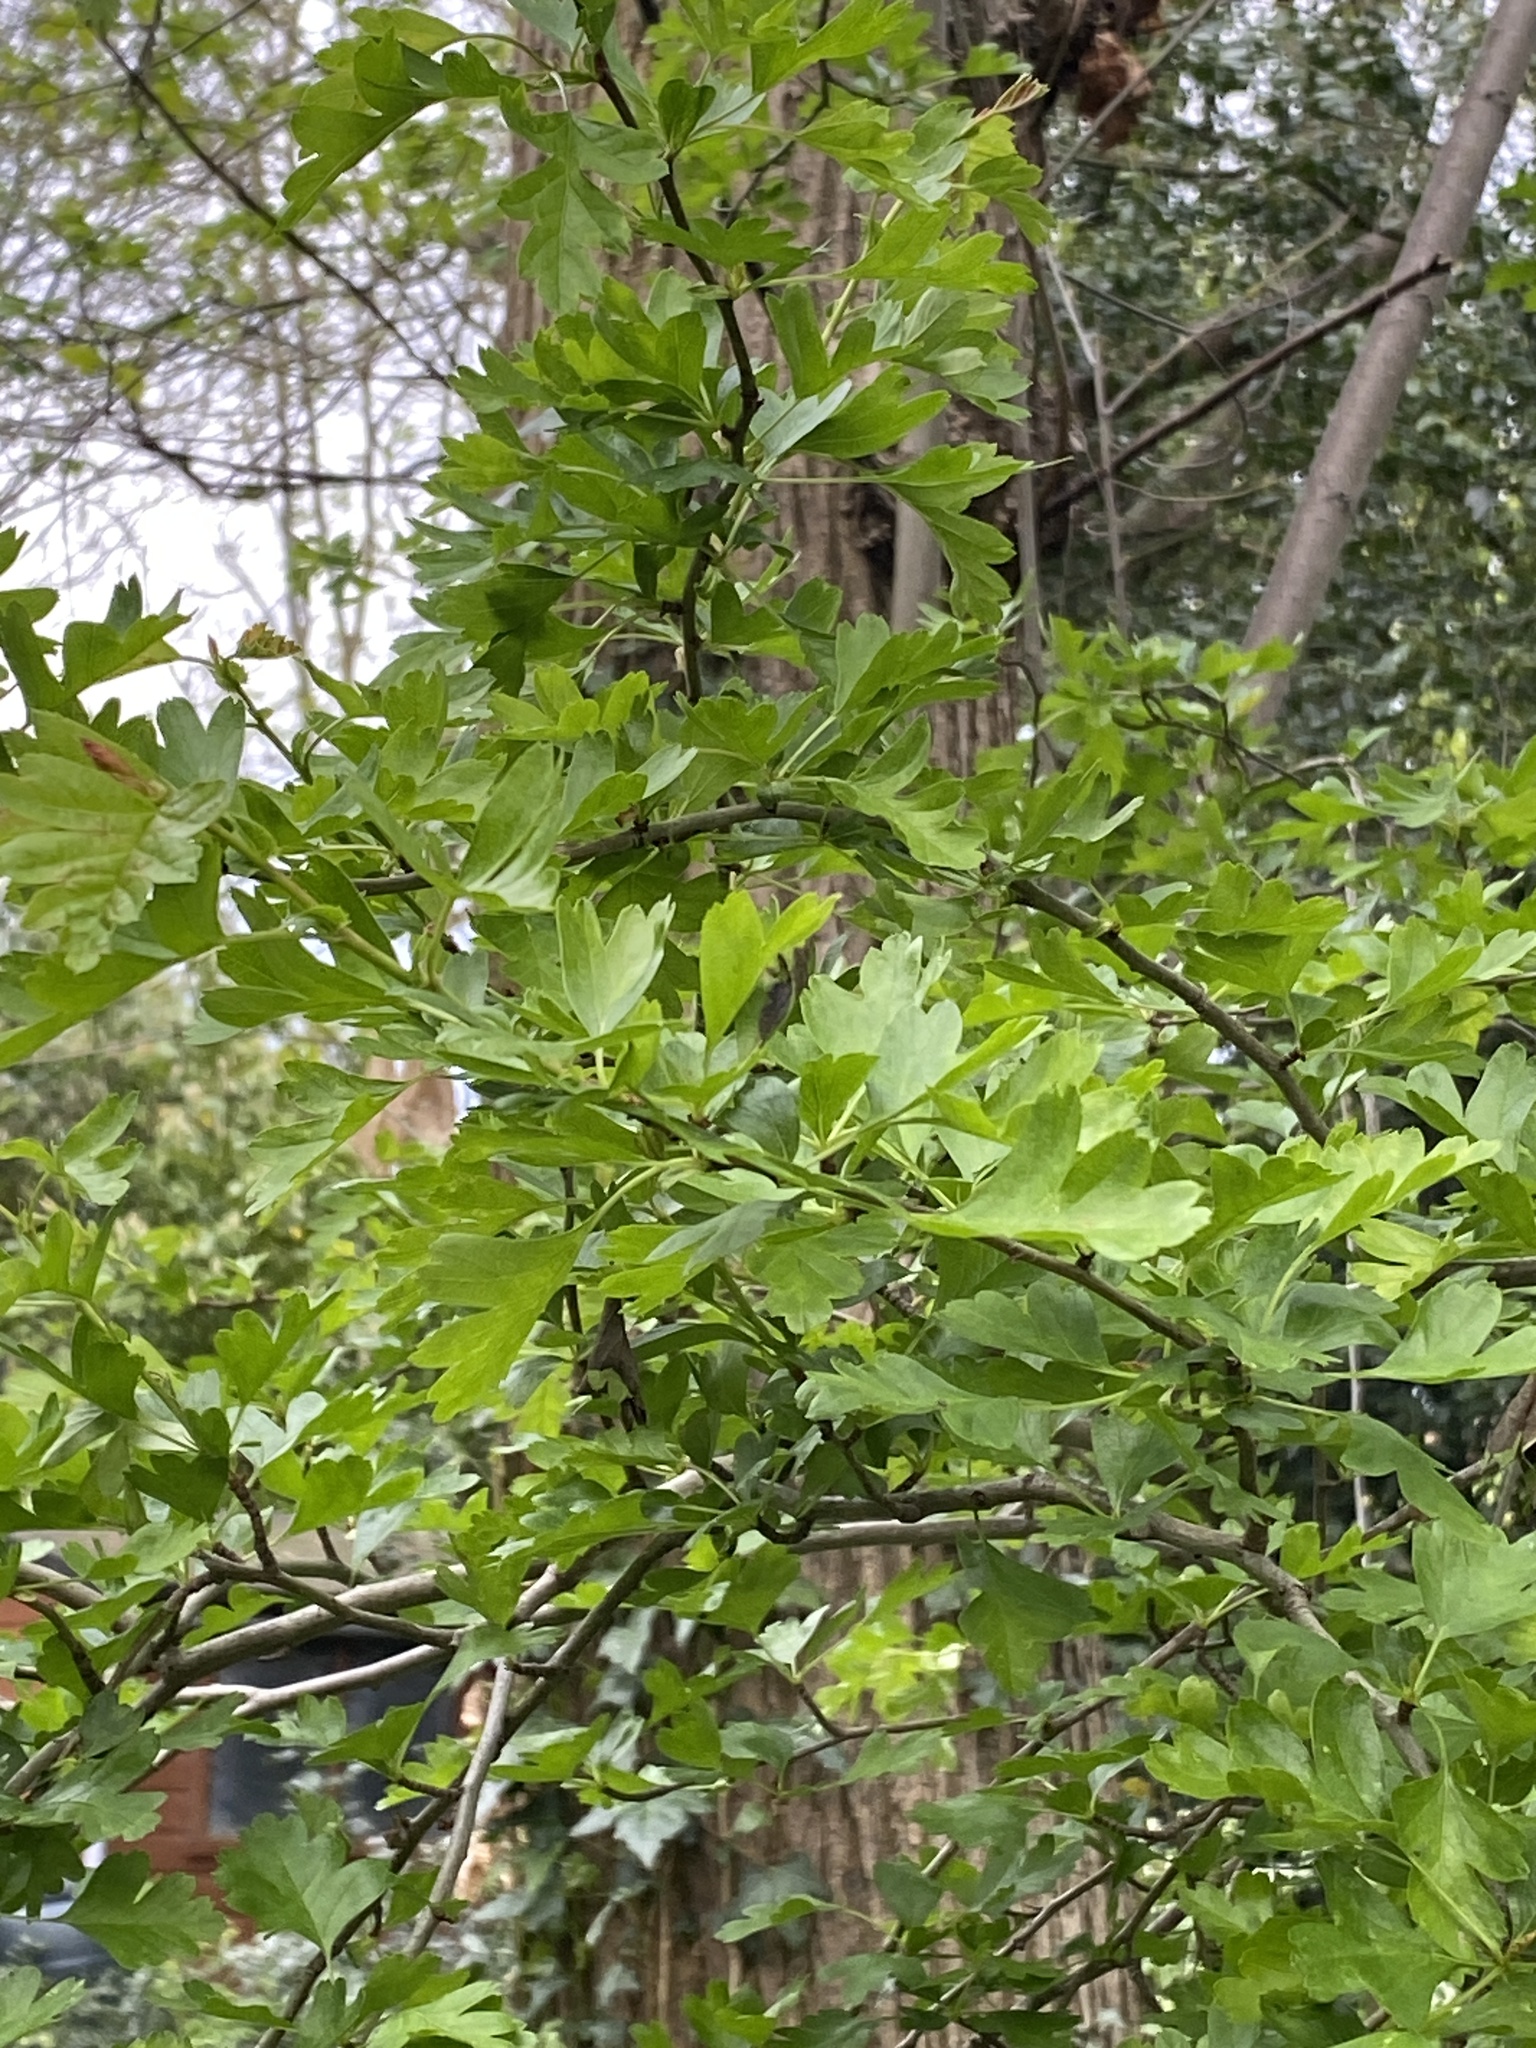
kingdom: Plantae
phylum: Tracheophyta
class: Magnoliopsida
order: Rosales
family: Rosaceae
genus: Crataegus
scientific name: Crataegus monogyna
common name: Hawthorn
